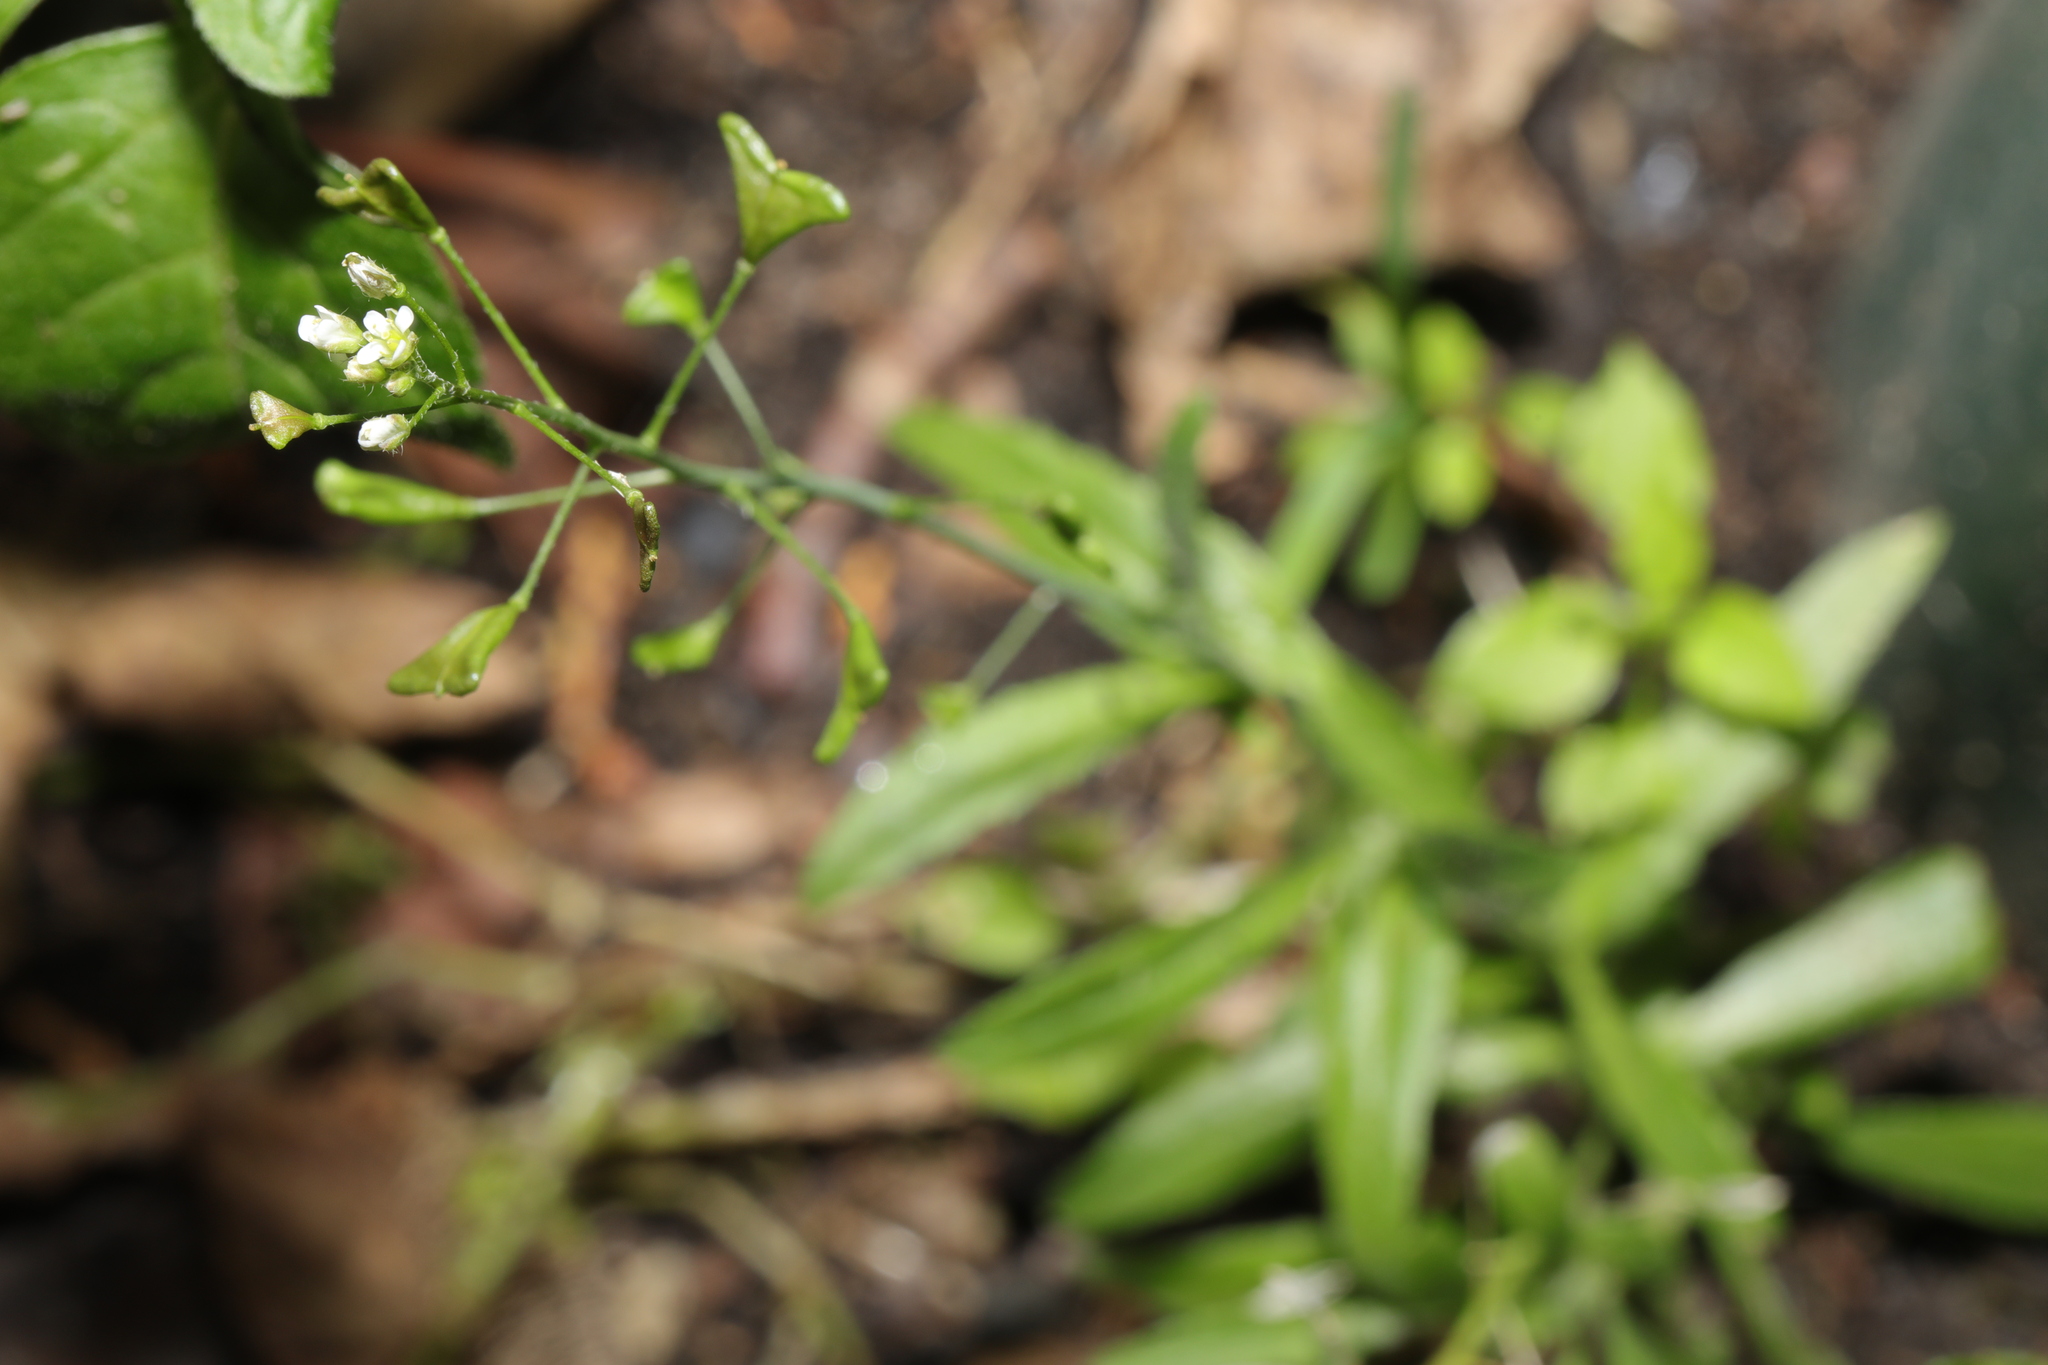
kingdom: Plantae
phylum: Tracheophyta
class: Magnoliopsida
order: Brassicales
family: Brassicaceae
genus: Capsella
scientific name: Capsella bursa-pastoris
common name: Shepherd's purse
